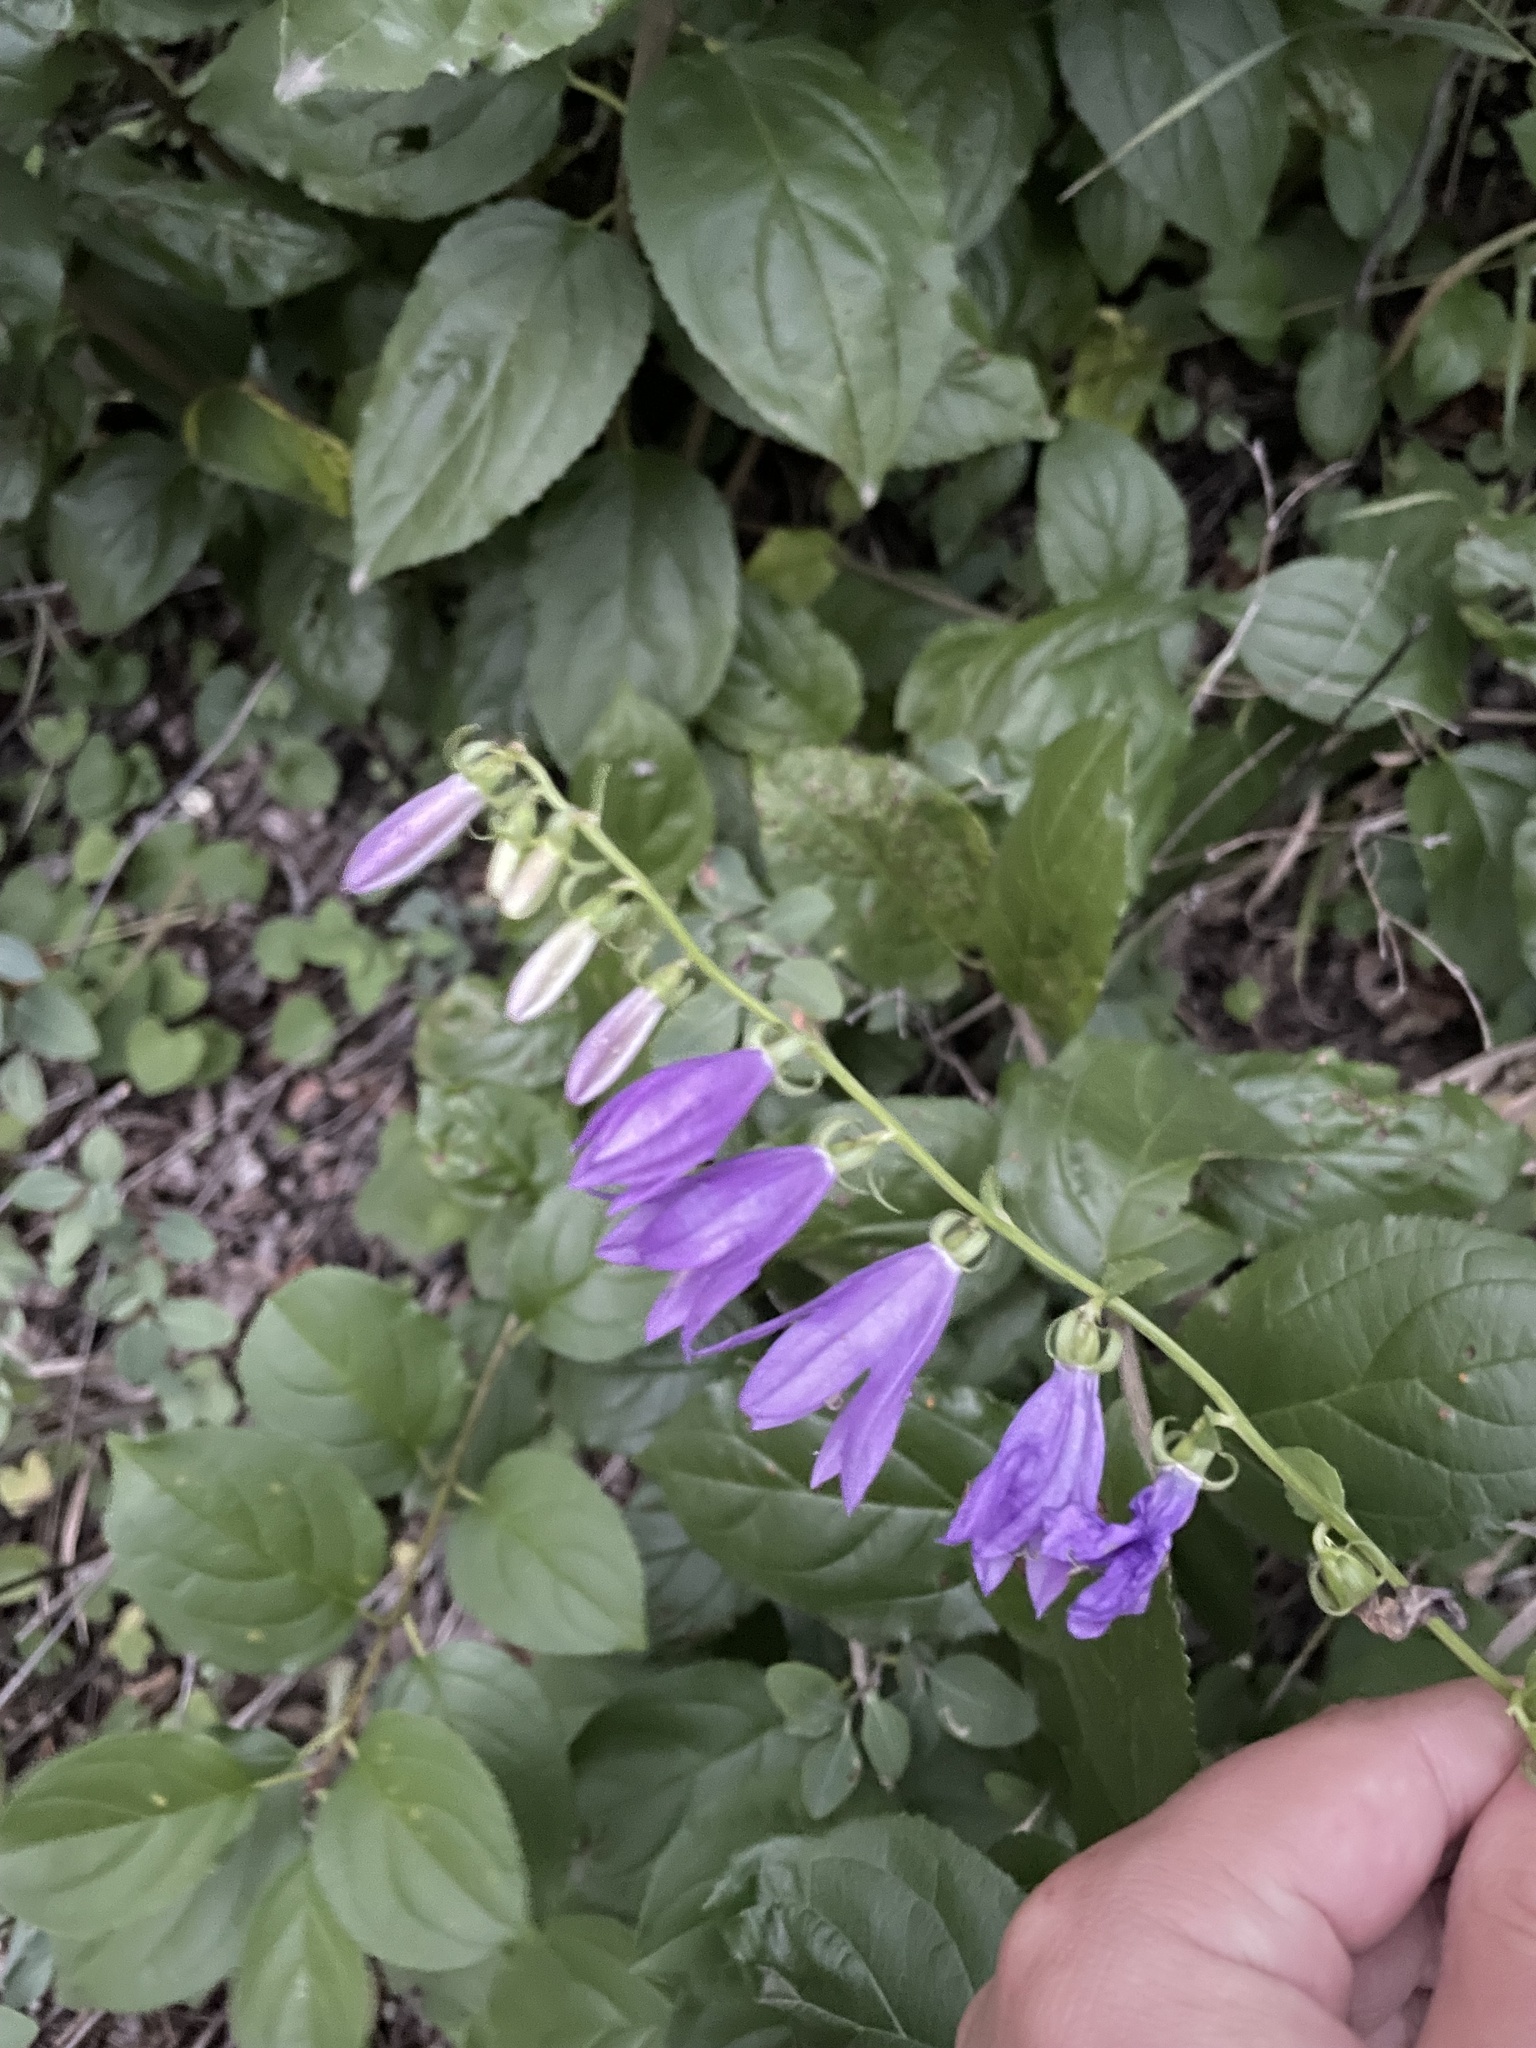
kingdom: Plantae
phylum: Tracheophyta
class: Magnoliopsida
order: Asterales
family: Campanulaceae
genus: Campanula
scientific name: Campanula rapunculoides
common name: Creeping bellflower
